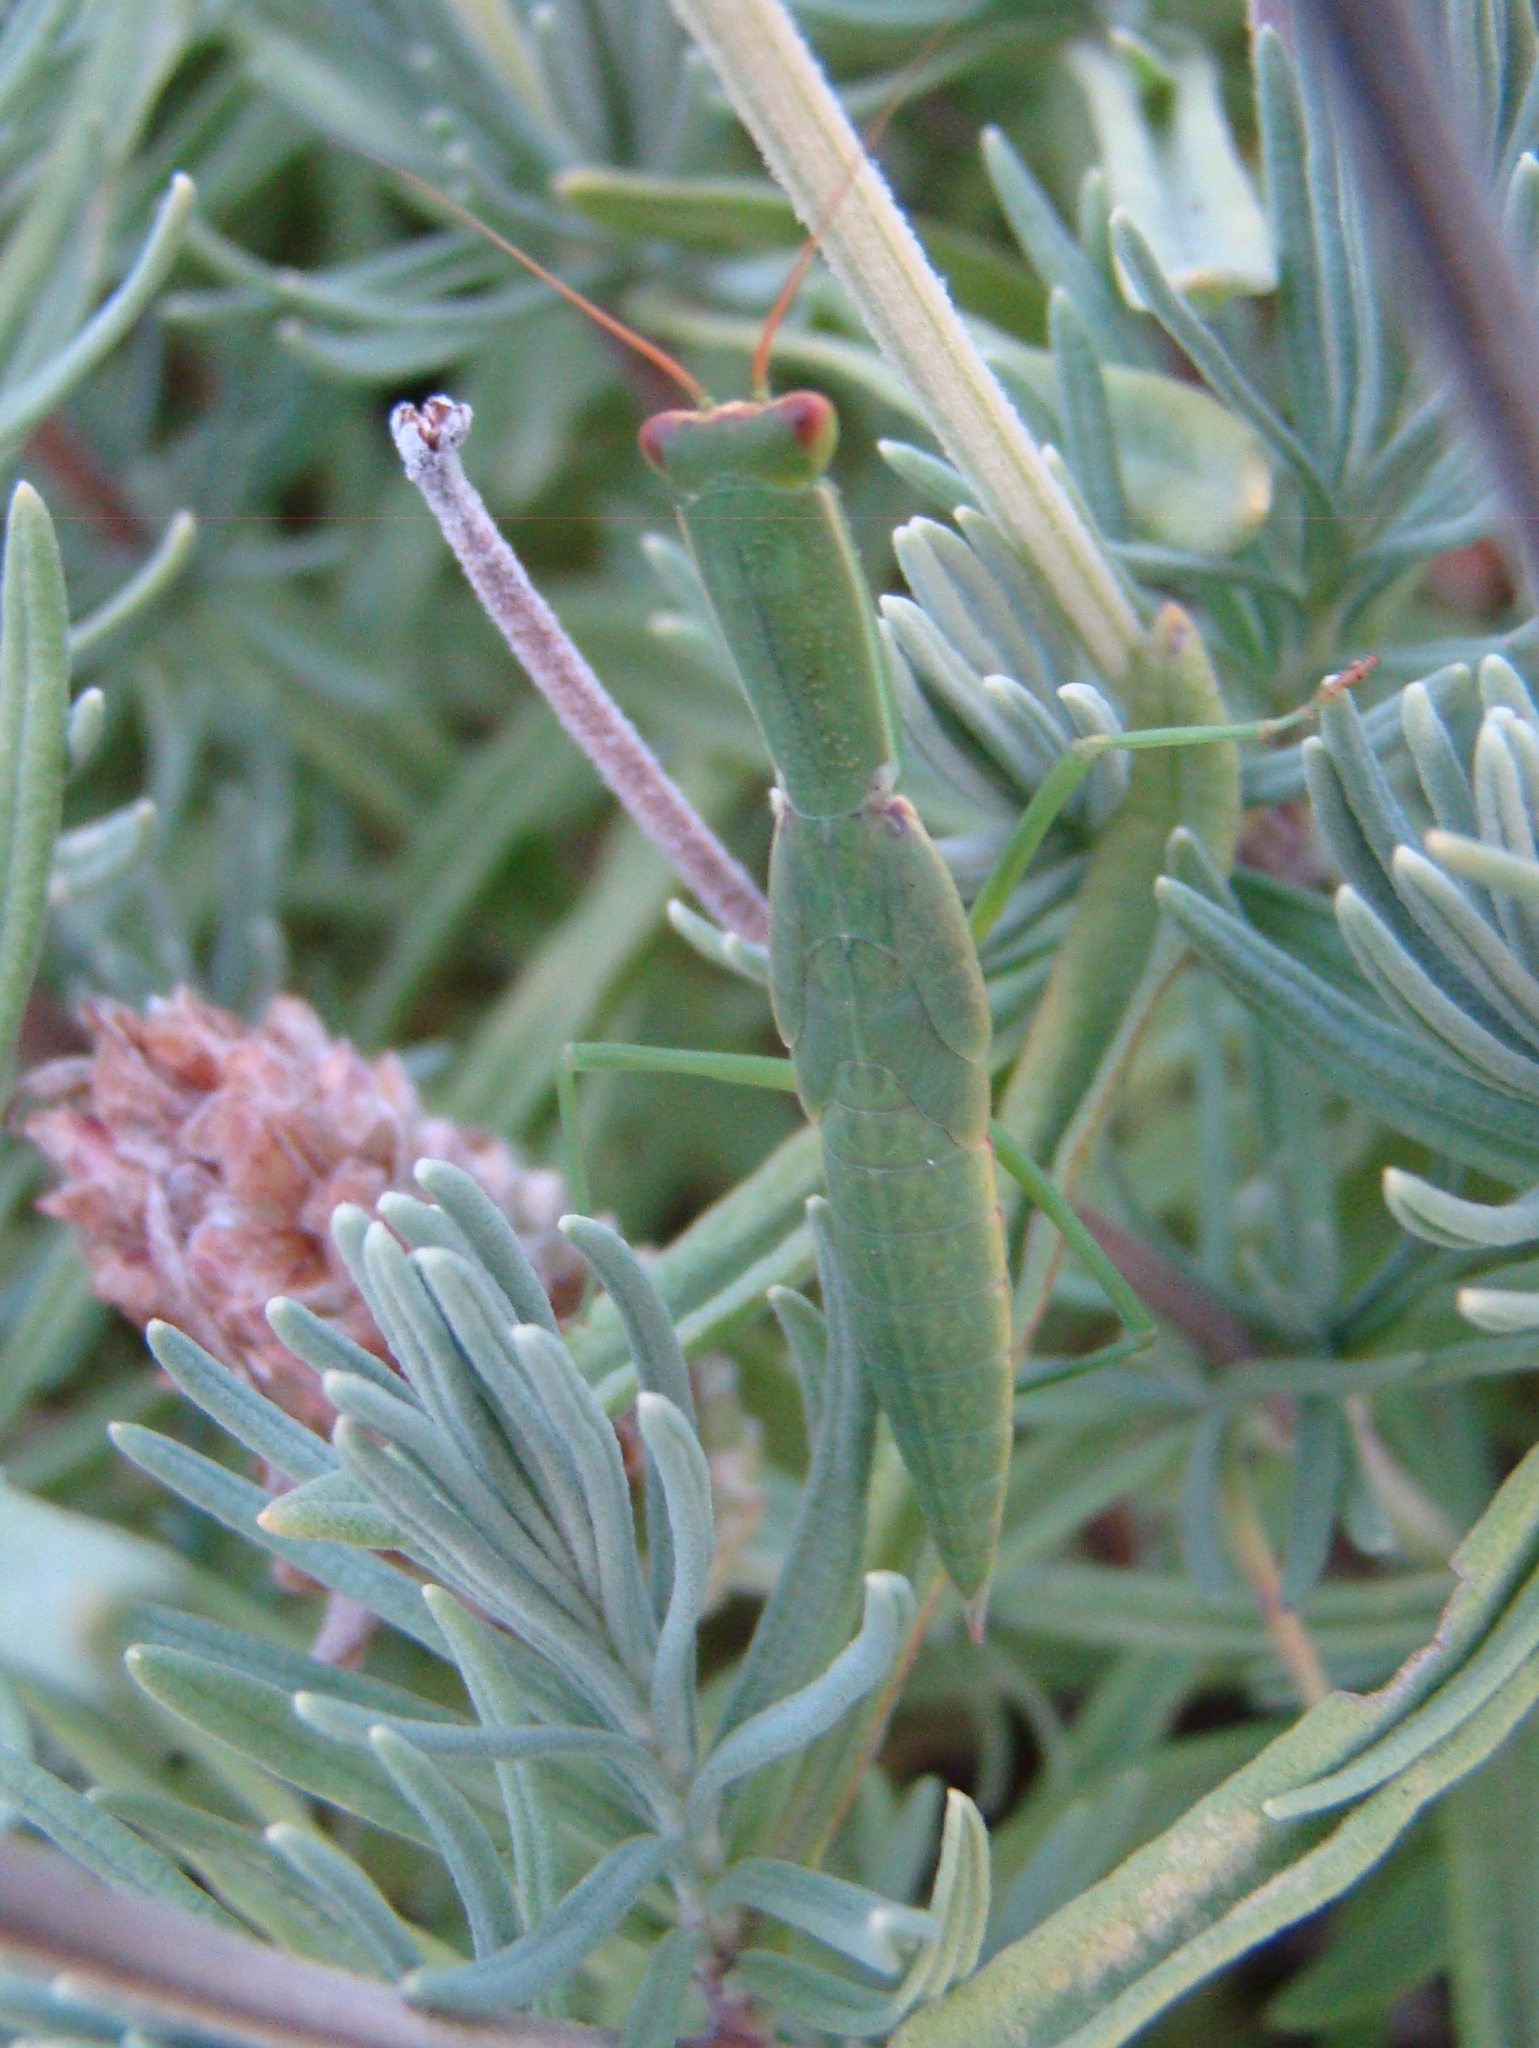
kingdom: Animalia
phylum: Arthropoda
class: Insecta
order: Mantodea
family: Mantidae
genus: Orthodera
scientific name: Orthodera novaezealandiae
